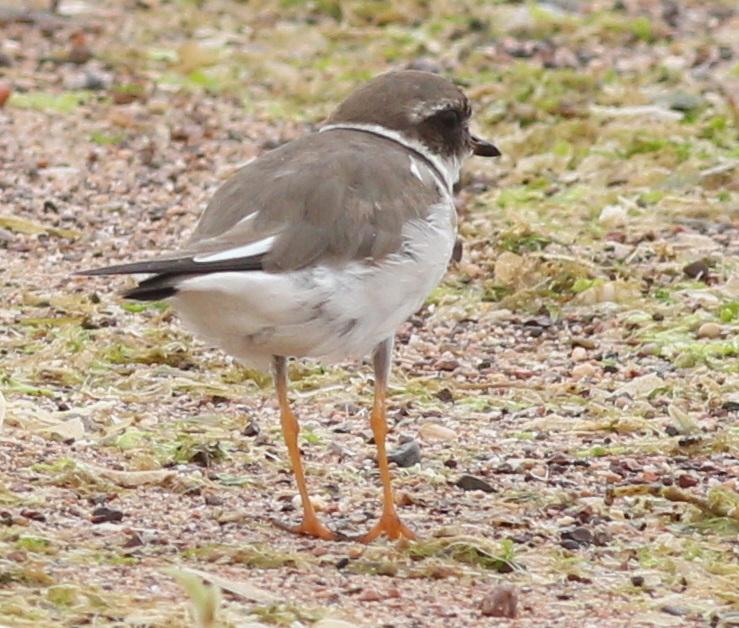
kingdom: Animalia
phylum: Chordata
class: Aves
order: Charadriiformes
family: Charadriidae
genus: Charadrius
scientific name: Charadrius hiaticula
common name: Common ringed plover
